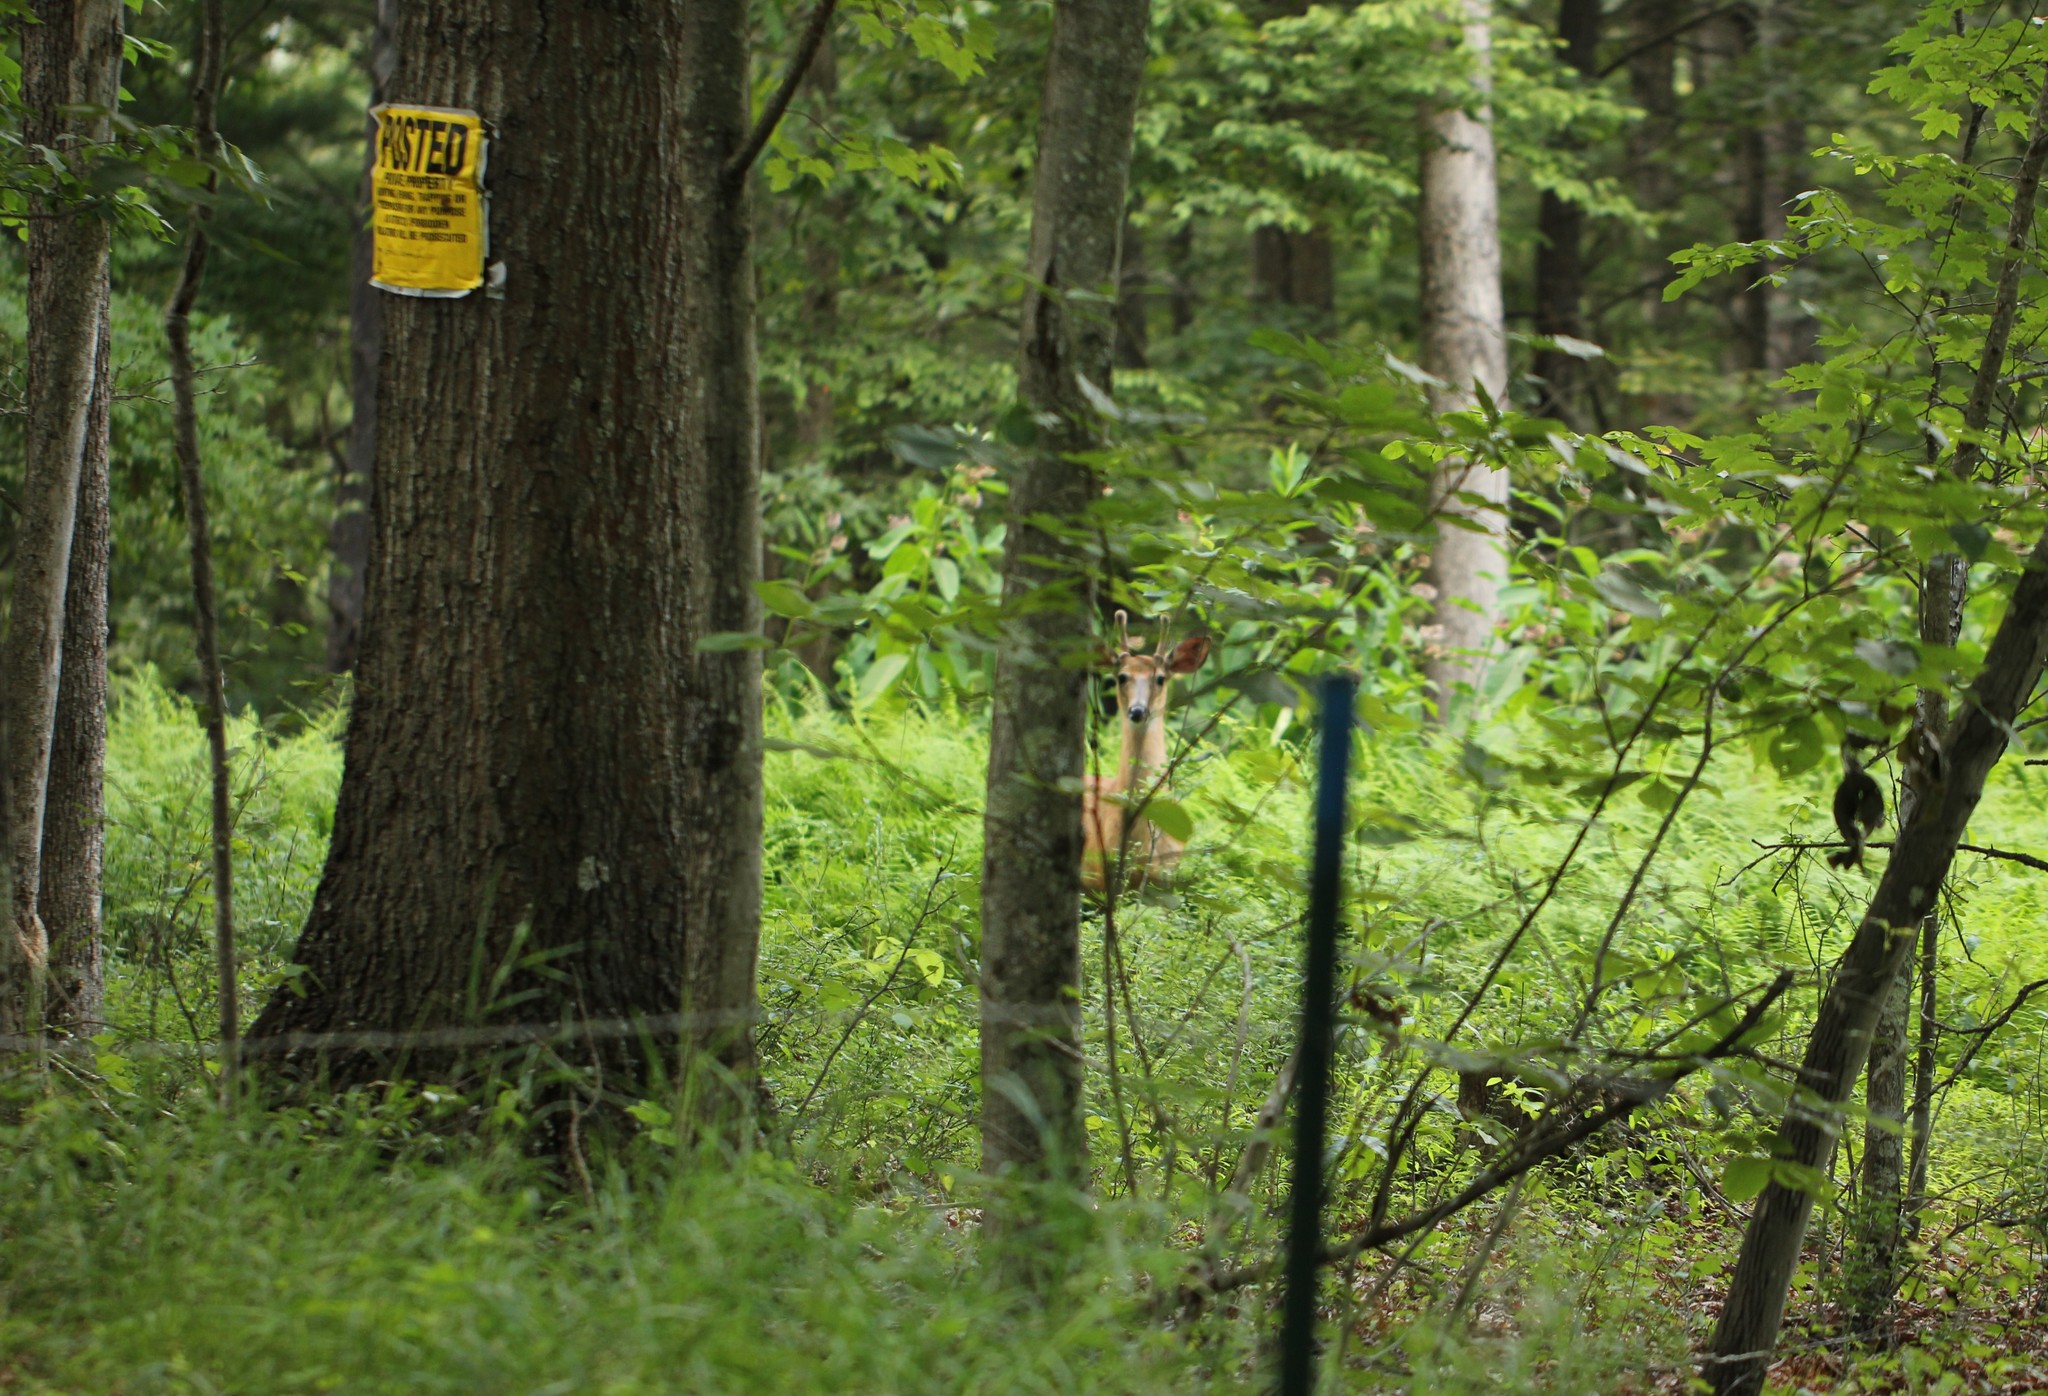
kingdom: Animalia
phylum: Chordata
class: Mammalia
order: Artiodactyla
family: Cervidae
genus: Odocoileus
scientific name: Odocoileus virginianus
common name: White-tailed deer
